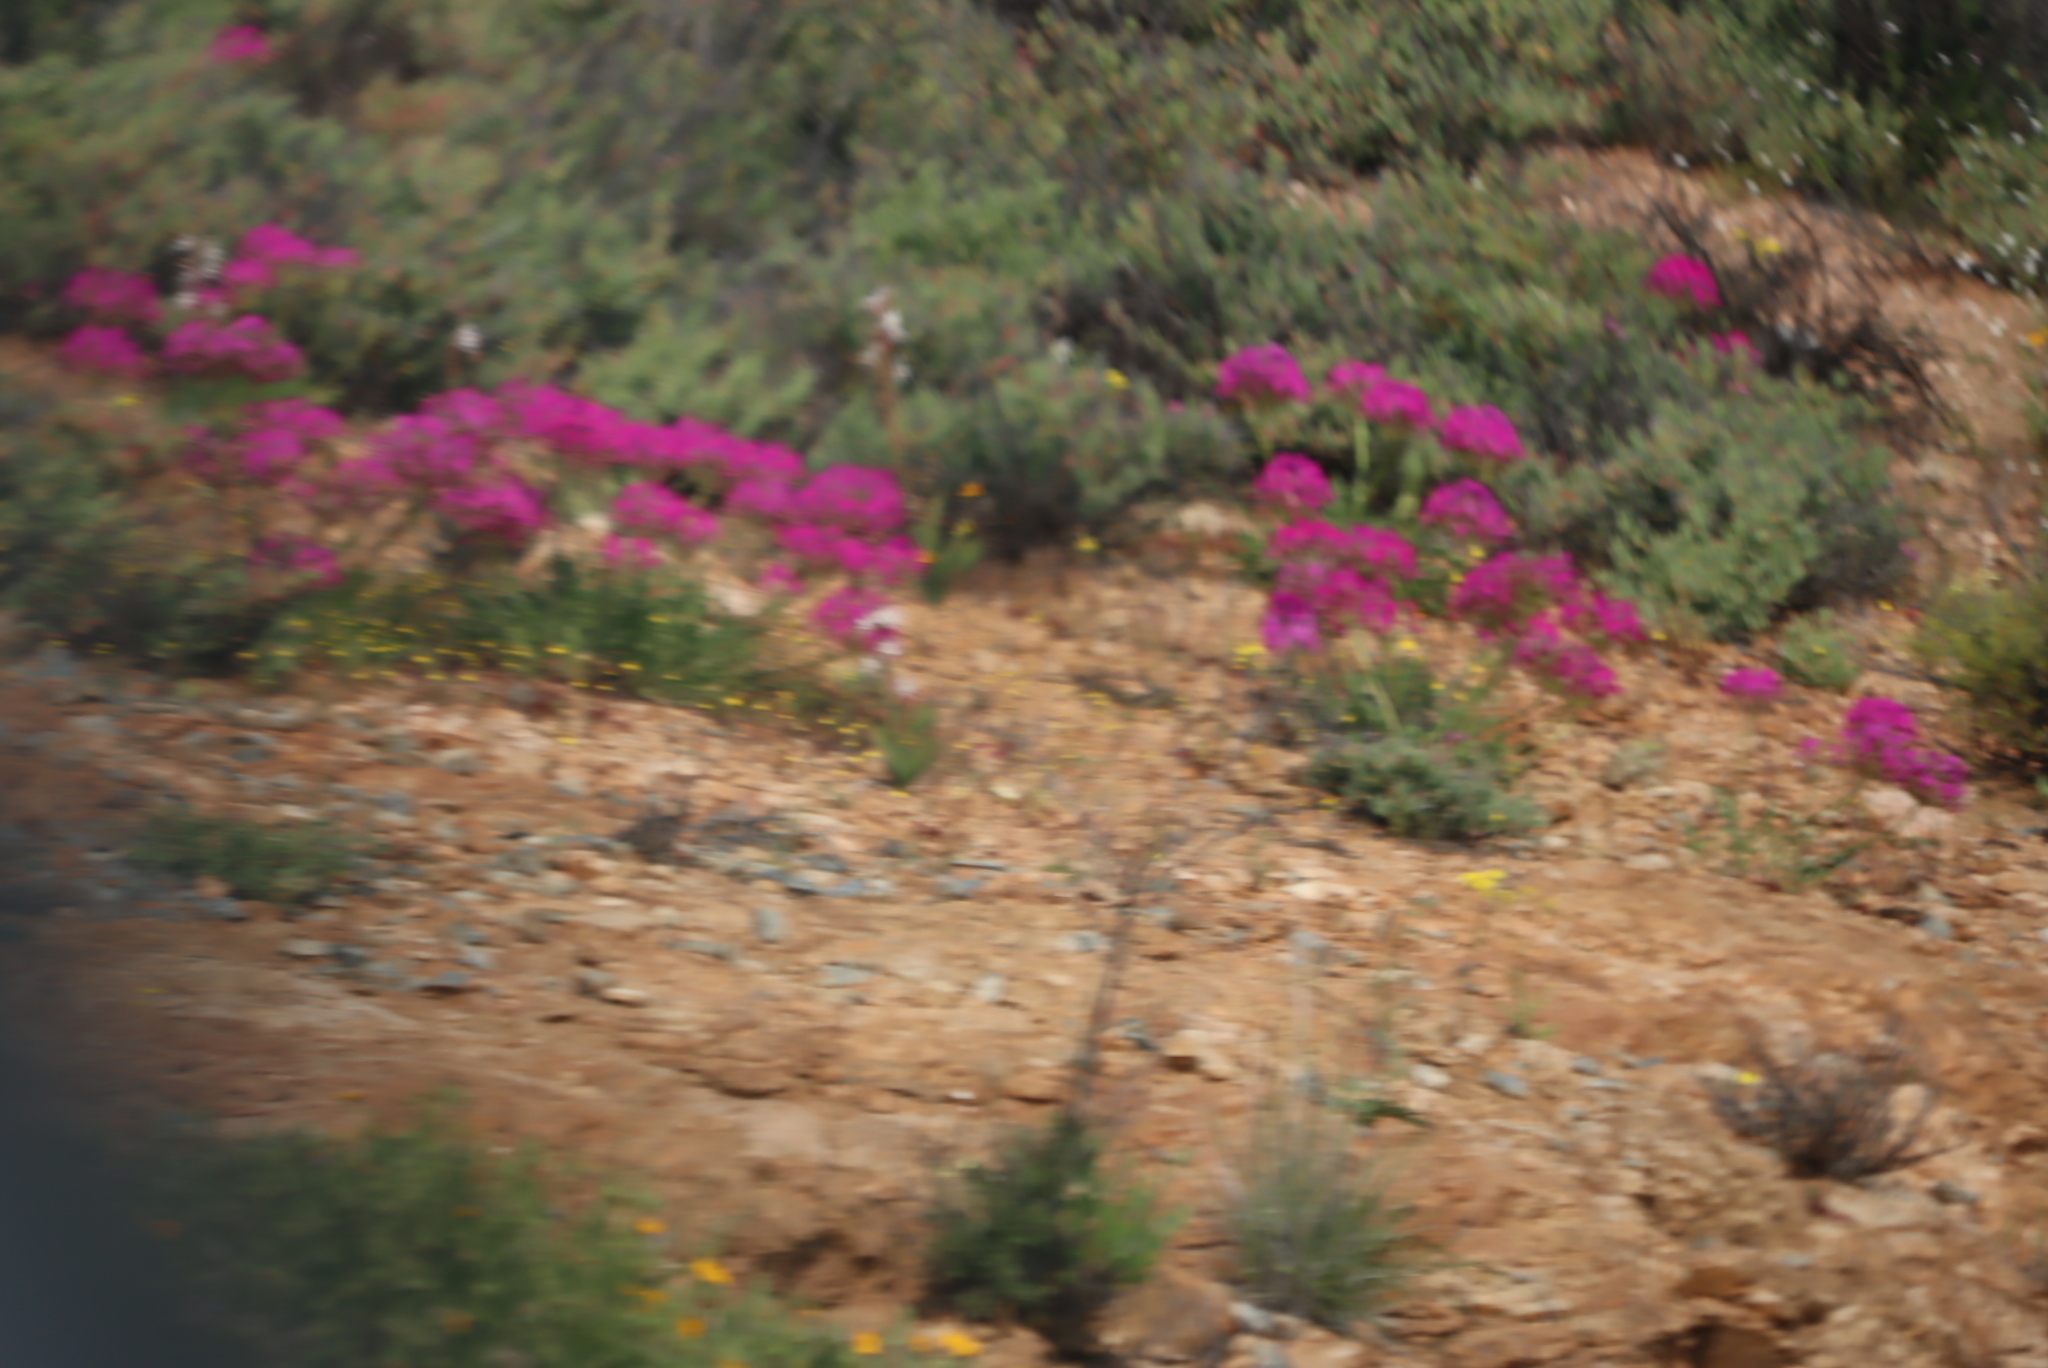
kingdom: Plantae
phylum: Tracheophyta
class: Magnoliopsida
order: Geraniales
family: Geraniaceae
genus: Pelargonium
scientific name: Pelargonium incrassatum
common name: Namaqualand beauty
